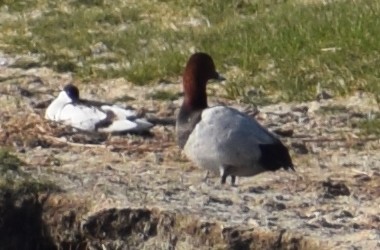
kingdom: Animalia
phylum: Chordata
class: Aves
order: Anseriformes
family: Anatidae
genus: Aythya
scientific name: Aythya ferina
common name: Common pochard
